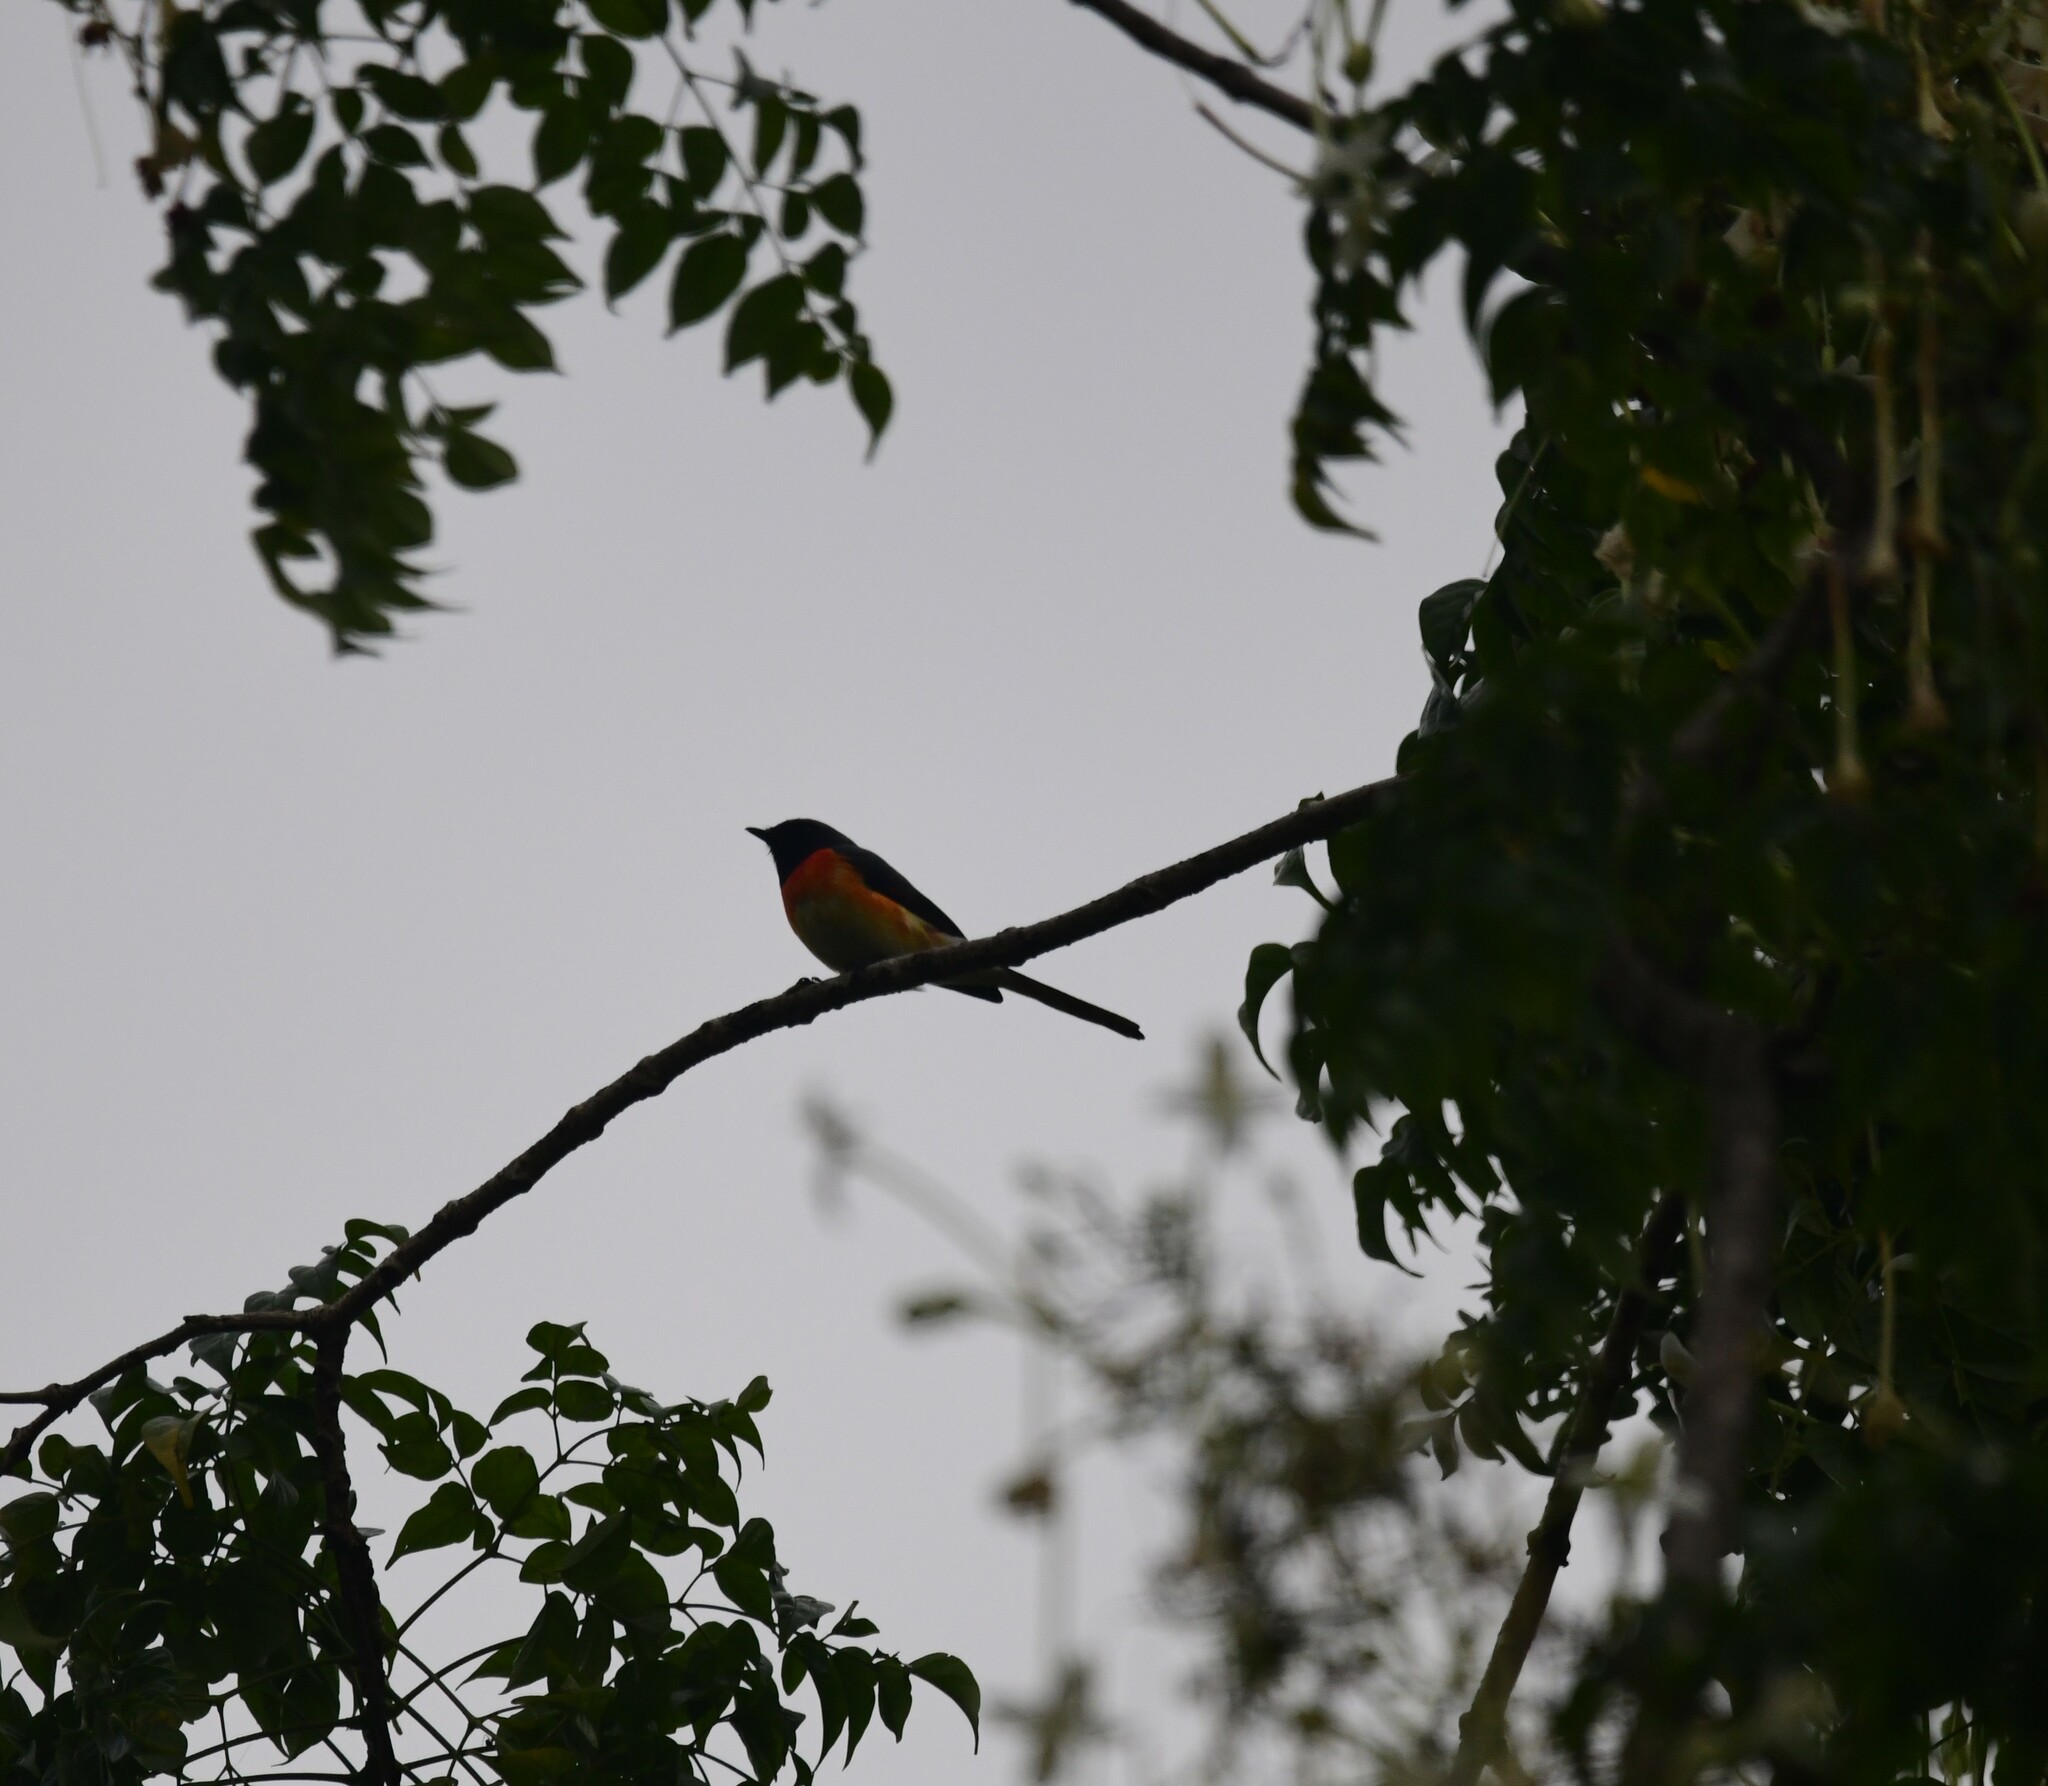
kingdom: Animalia
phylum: Chordata
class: Aves
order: Passeriformes
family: Campephagidae
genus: Pericrocotus
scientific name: Pericrocotus cinnamomeus
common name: Small minivet
